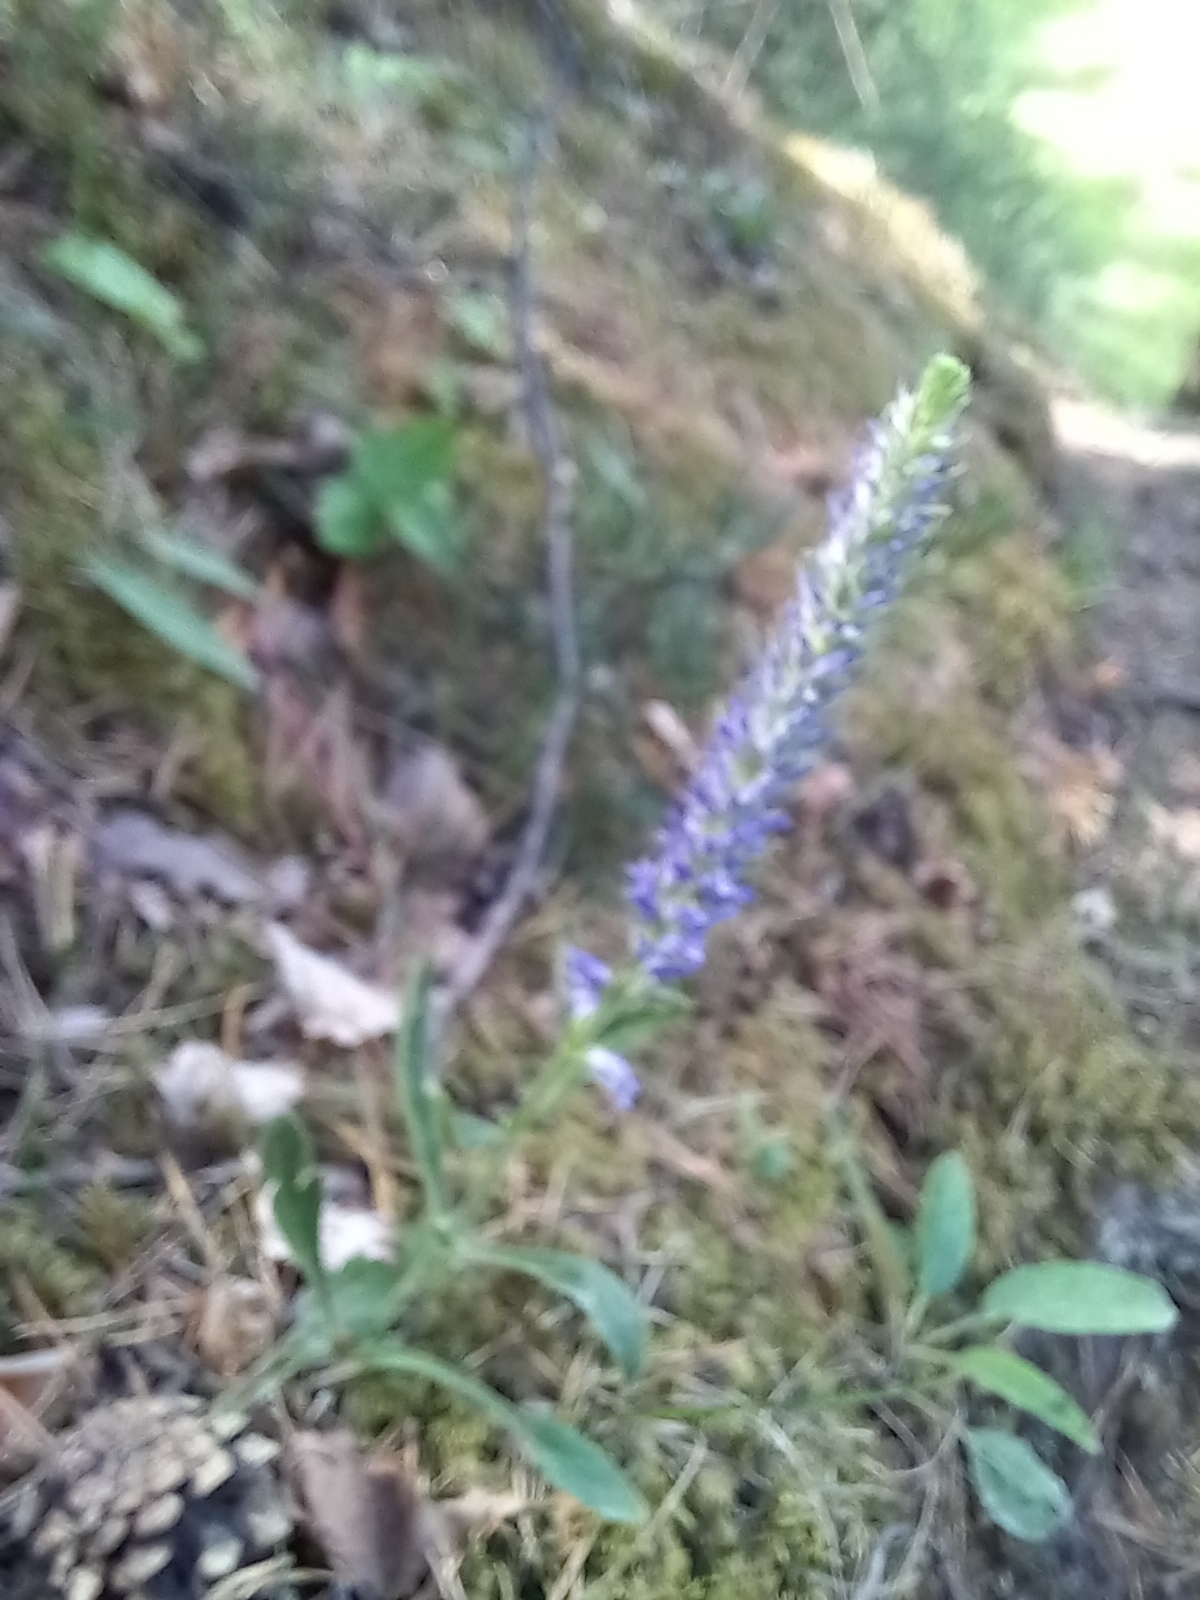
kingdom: Plantae
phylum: Tracheophyta
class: Magnoliopsida
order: Lamiales
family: Plantaginaceae
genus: Veronica
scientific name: Veronica spicata
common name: Spiked speedwell
